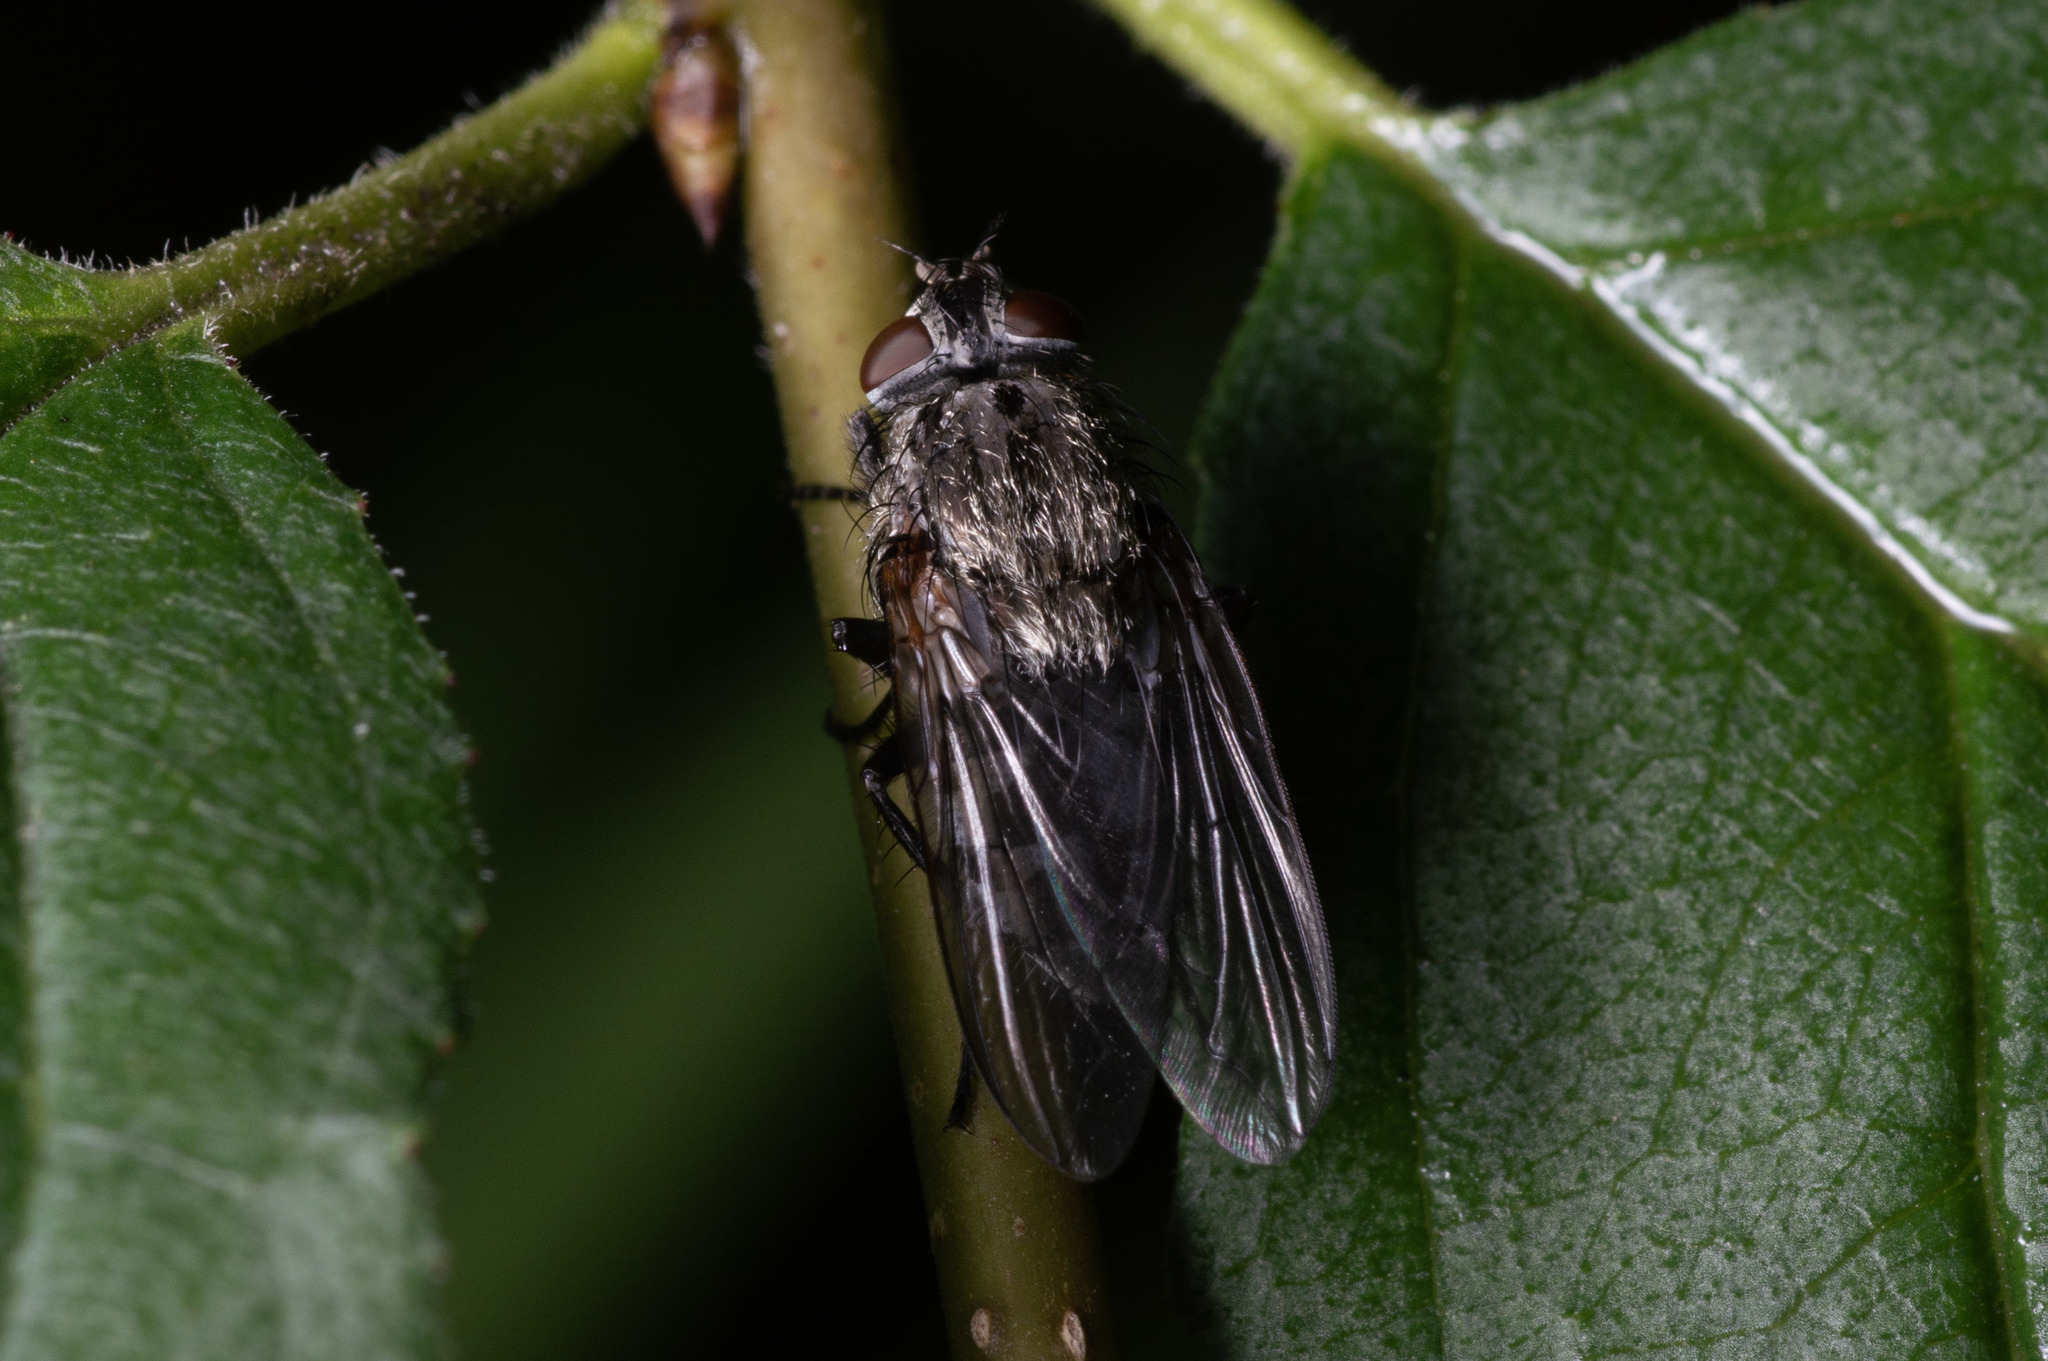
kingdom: Animalia
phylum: Arthropoda
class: Insecta
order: Diptera
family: Polleniidae
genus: Pollenia
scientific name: Pollenia vagabunda
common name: Vagabund cluster fly
